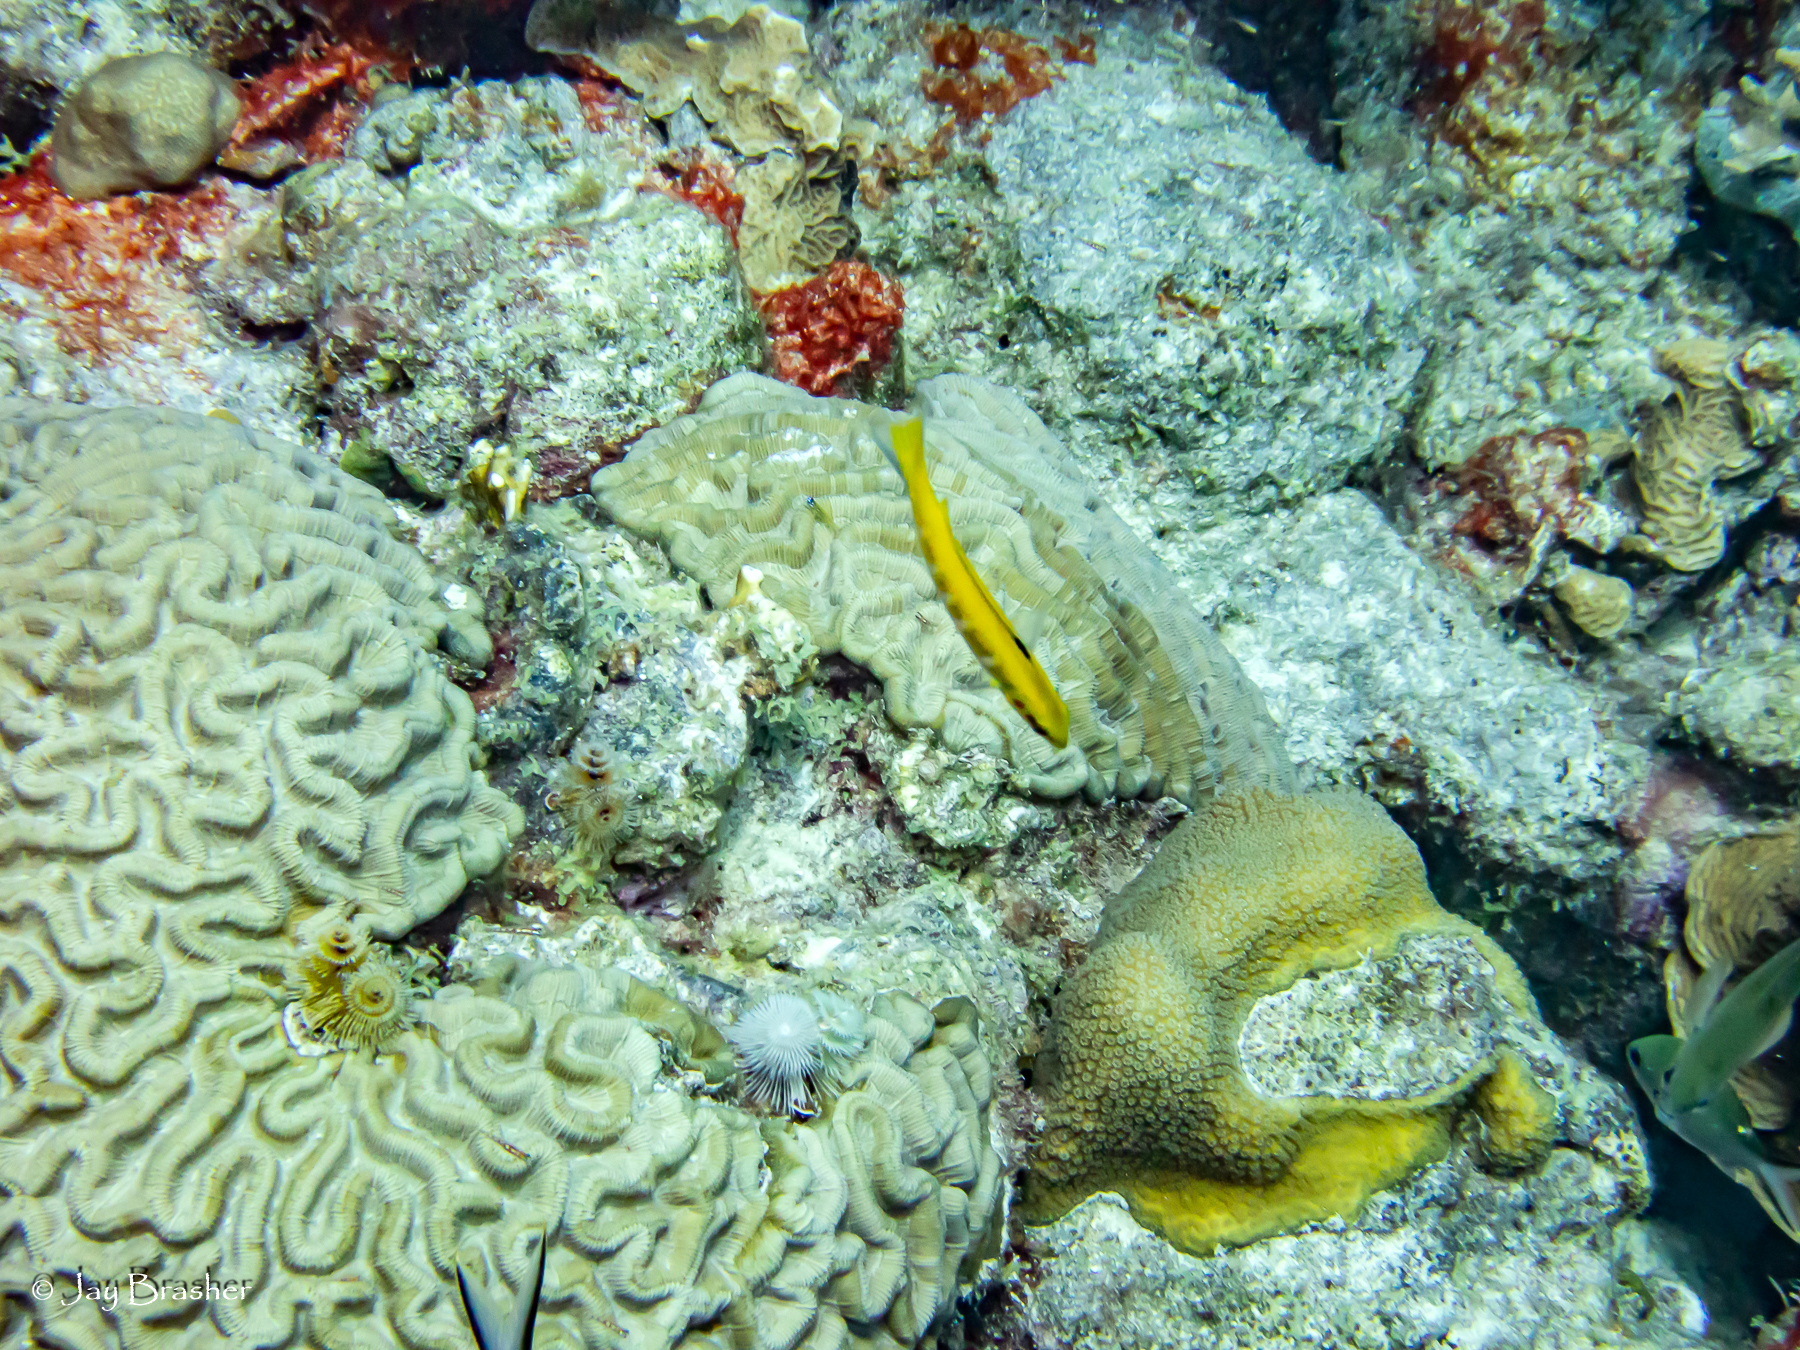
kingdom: Animalia
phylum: Chordata
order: Perciformes
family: Labridae
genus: Thalassoma
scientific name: Thalassoma bifasciatum
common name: Bluehead wrasse
